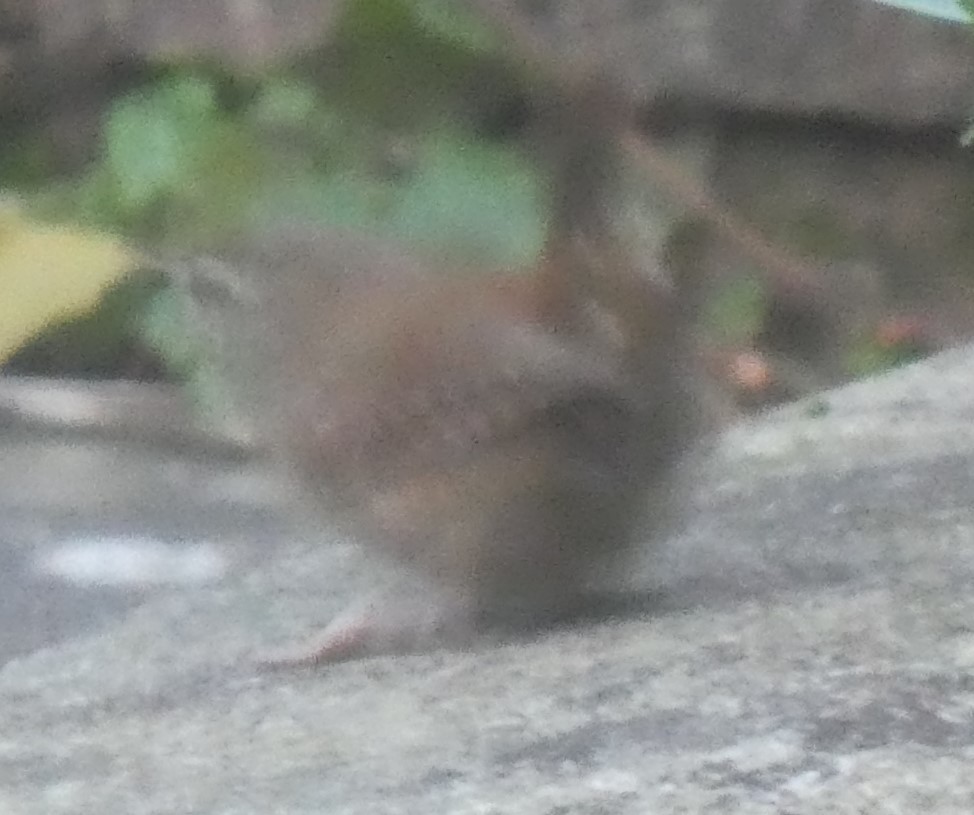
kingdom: Animalia
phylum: Chordata
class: Aves
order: Passeriformes
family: Troglodytidae
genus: Troglodytes
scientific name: Troglodytes troglodytes
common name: Eurasian wren
